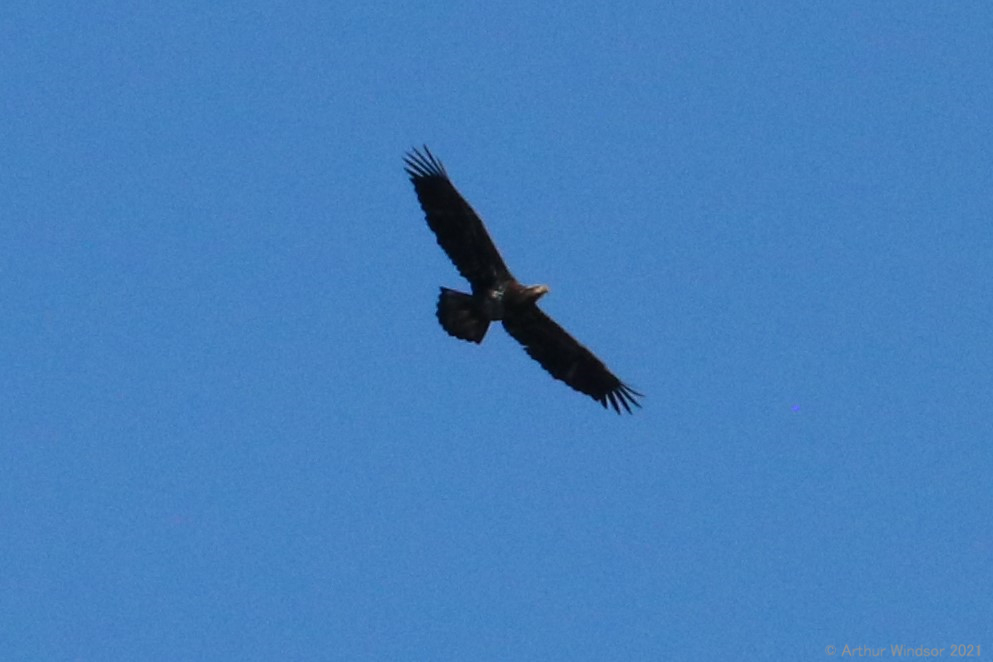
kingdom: Animalia
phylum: Chordata
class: Aves
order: Accipitriformes
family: Accipitridae
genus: Haliaeetus
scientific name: Haliaeetus leucocephalus
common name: Bald eagle
